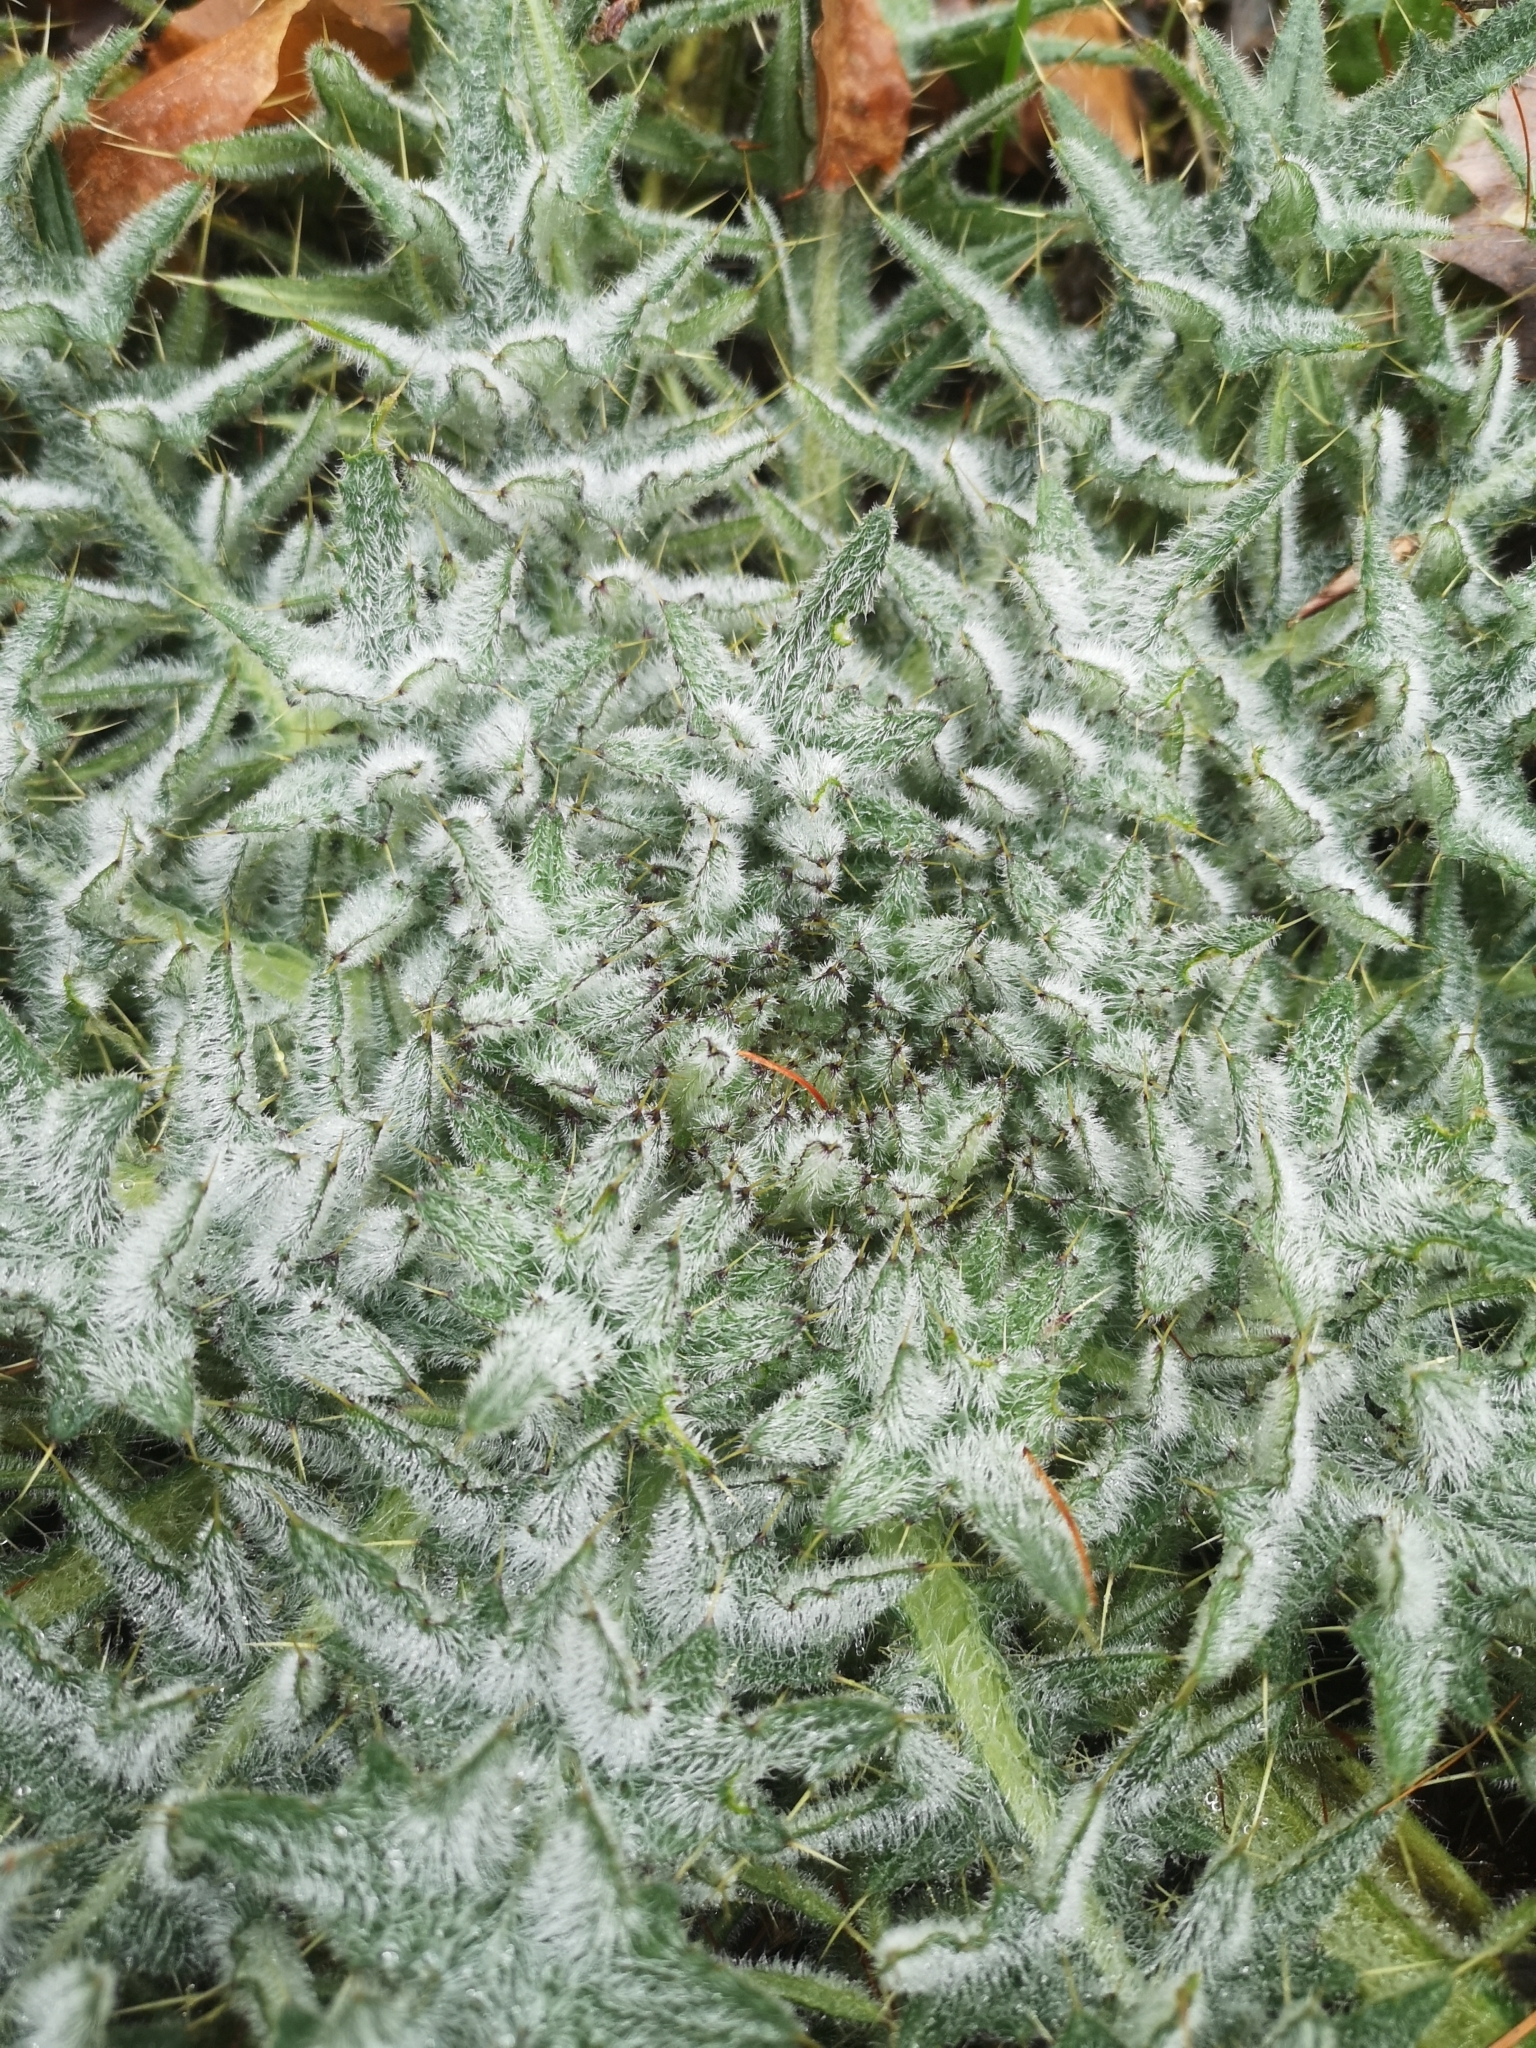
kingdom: Plantae
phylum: Tracheophyta
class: Magnoliopsida
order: Asterales
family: Asteraceae
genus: Cirsium
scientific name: Cirsium vulgare
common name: Bull thistle
